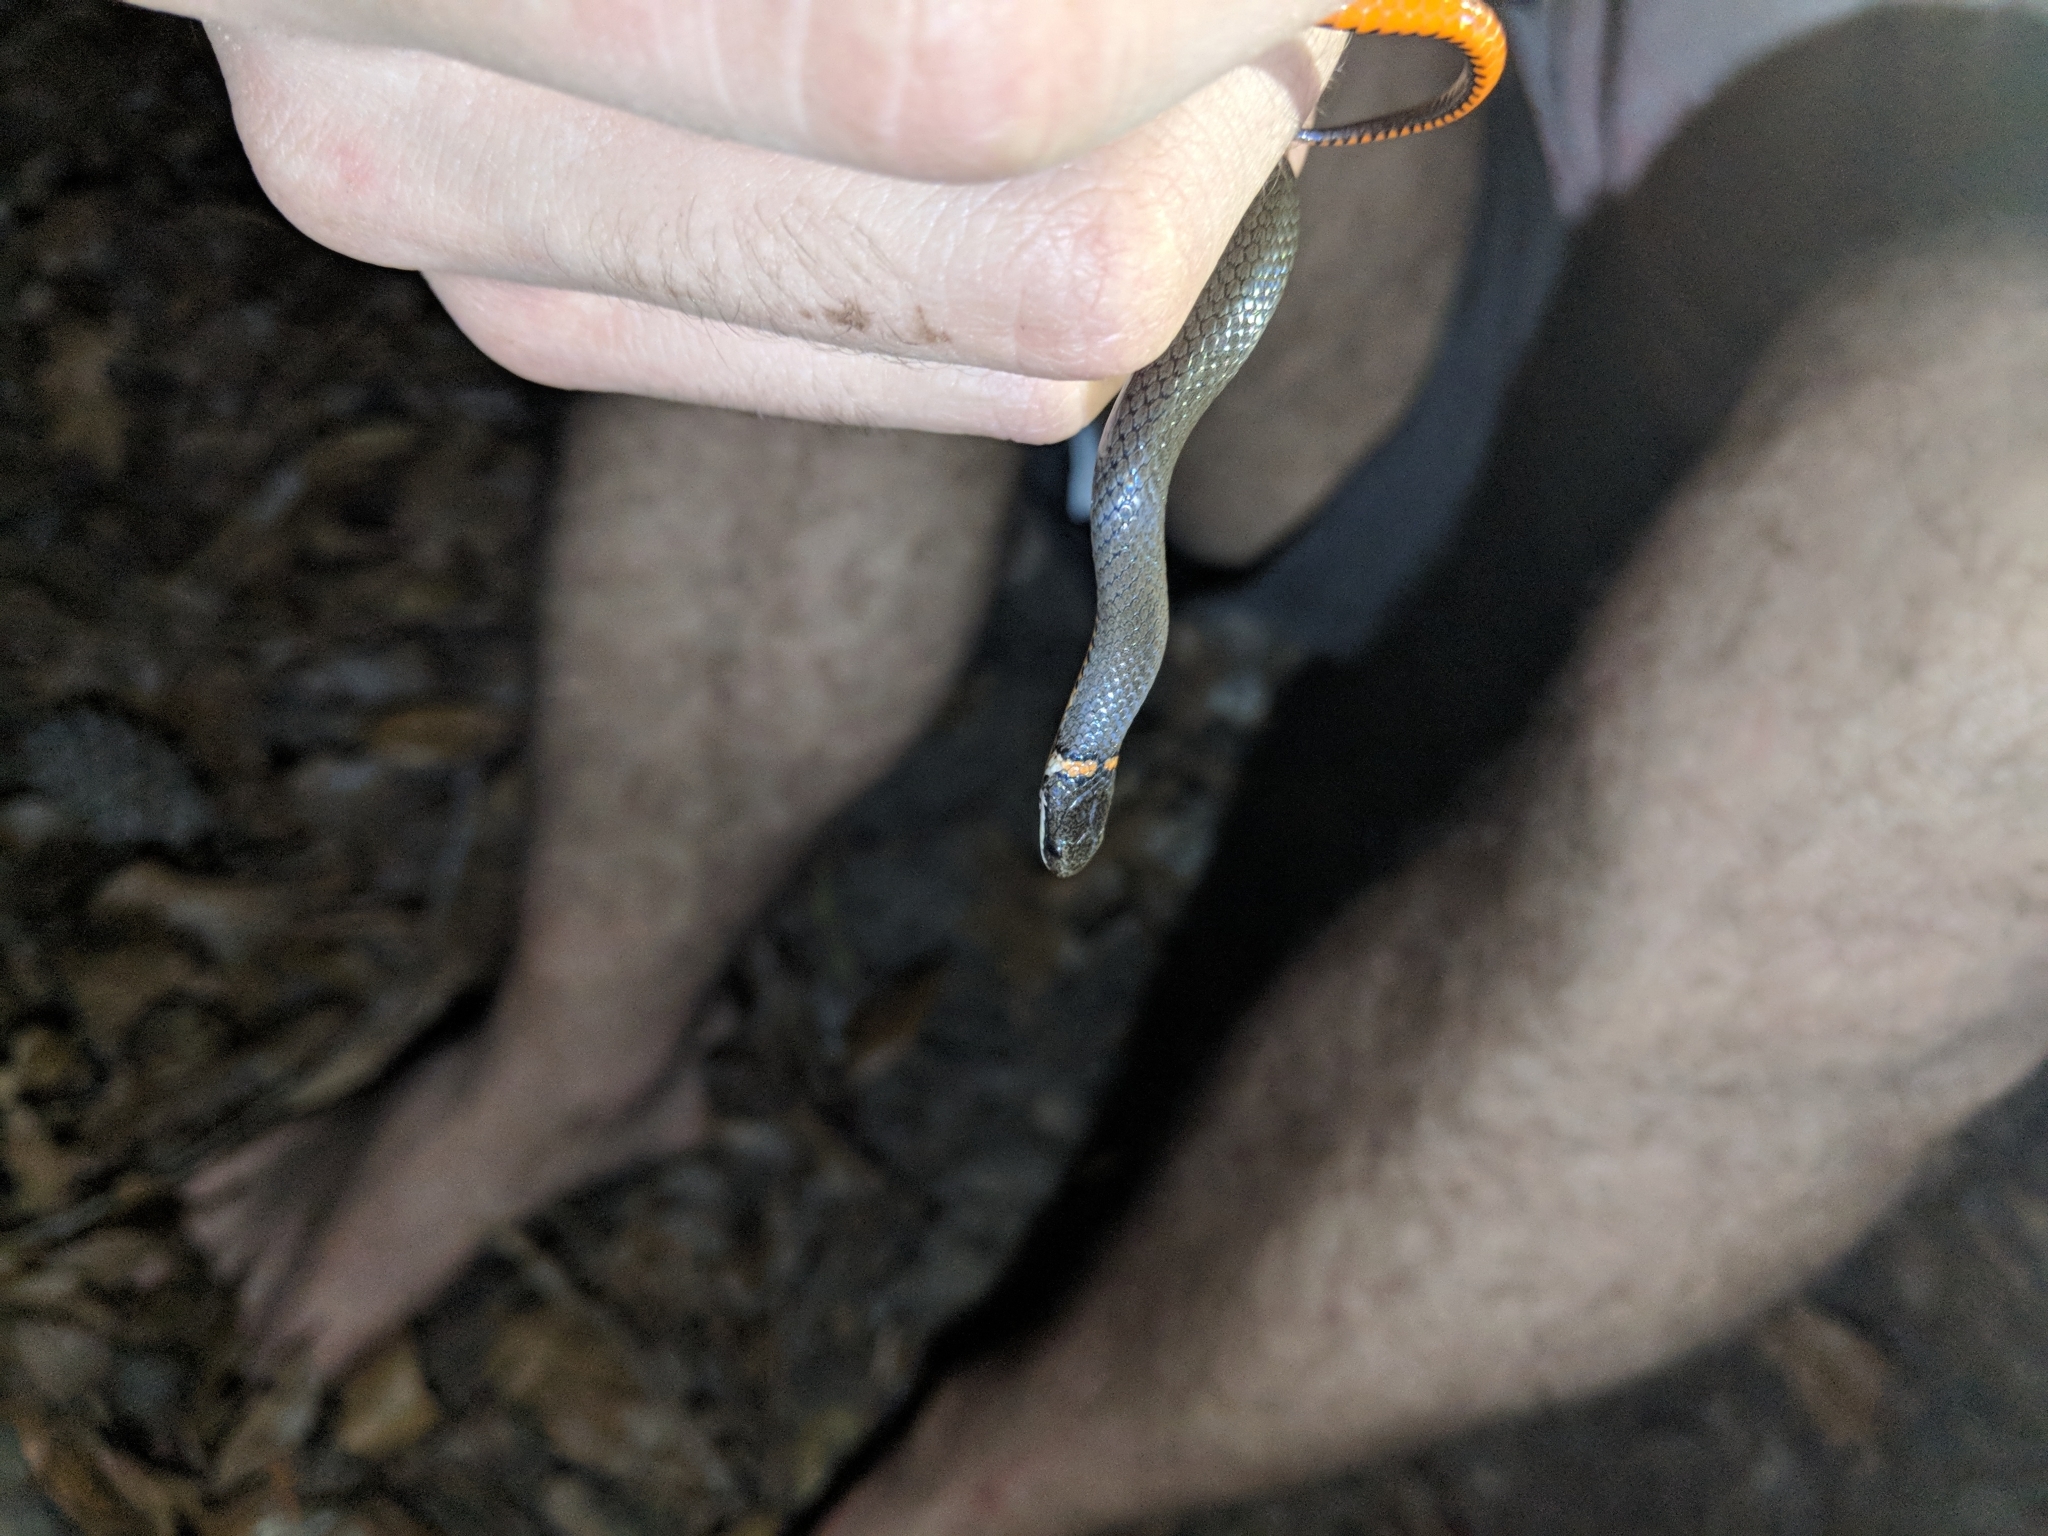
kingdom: Animalia
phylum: Chordata
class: Squamata
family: Colubridae
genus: Diadophis
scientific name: Diadophis punctatus
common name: Ringneck snake
